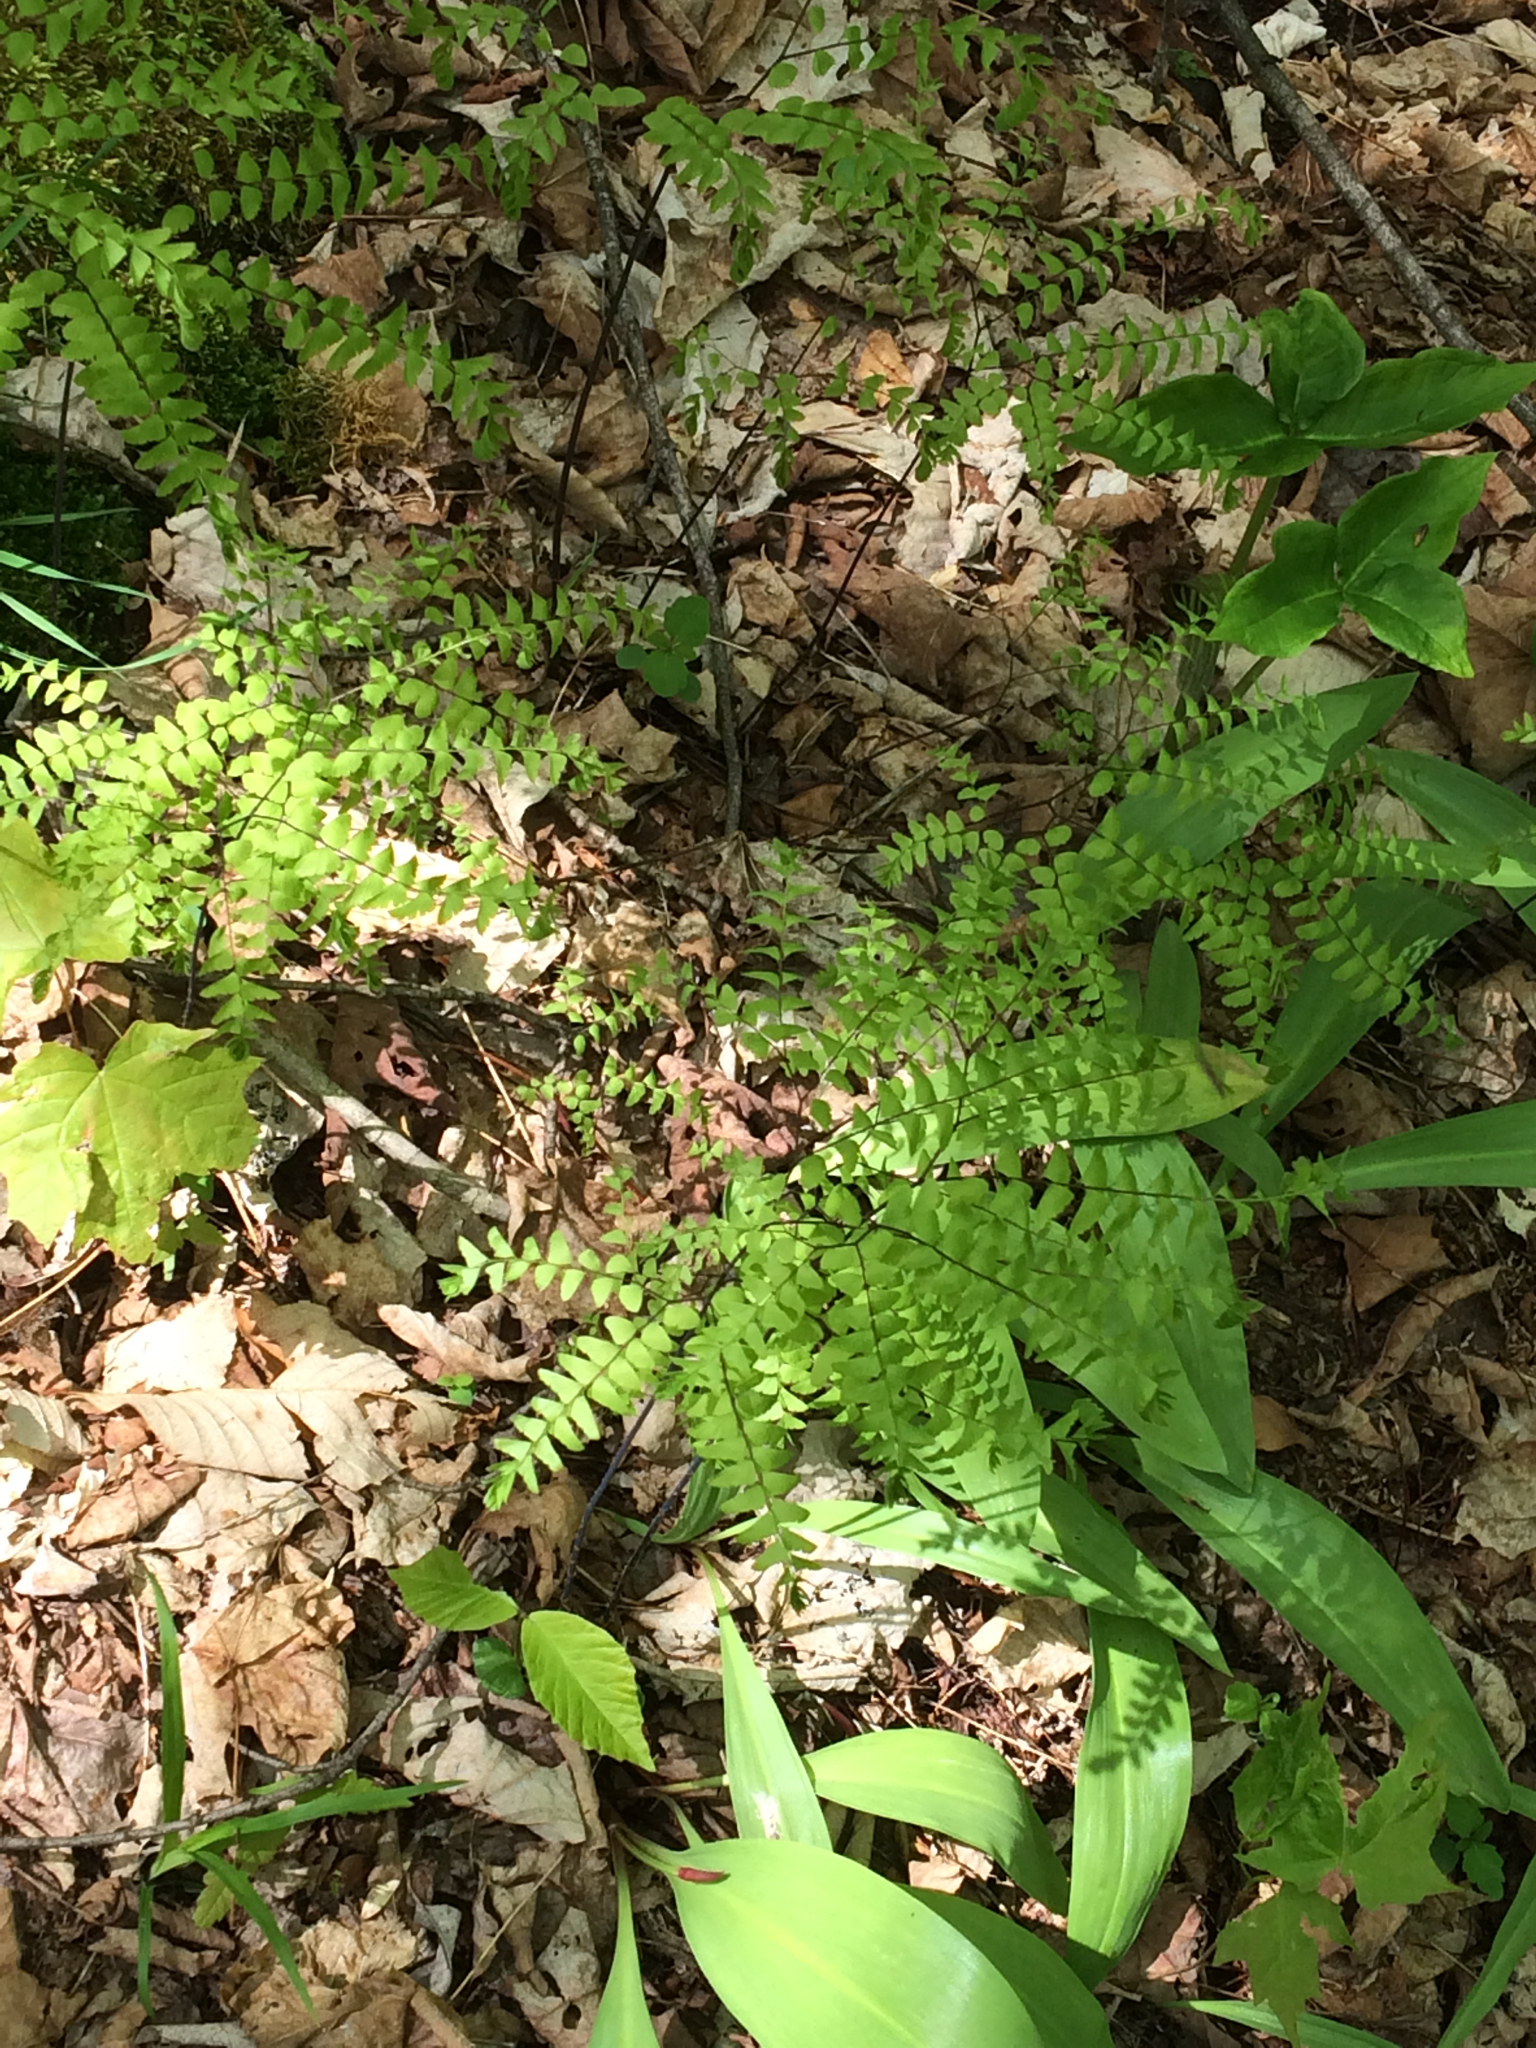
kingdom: Plantae
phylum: Tracheophyta
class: Polypodiopsida
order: Polypodiales
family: Pteridaceae
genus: Adiantum
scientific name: Adiantum pedatum
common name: Five-finger fern
